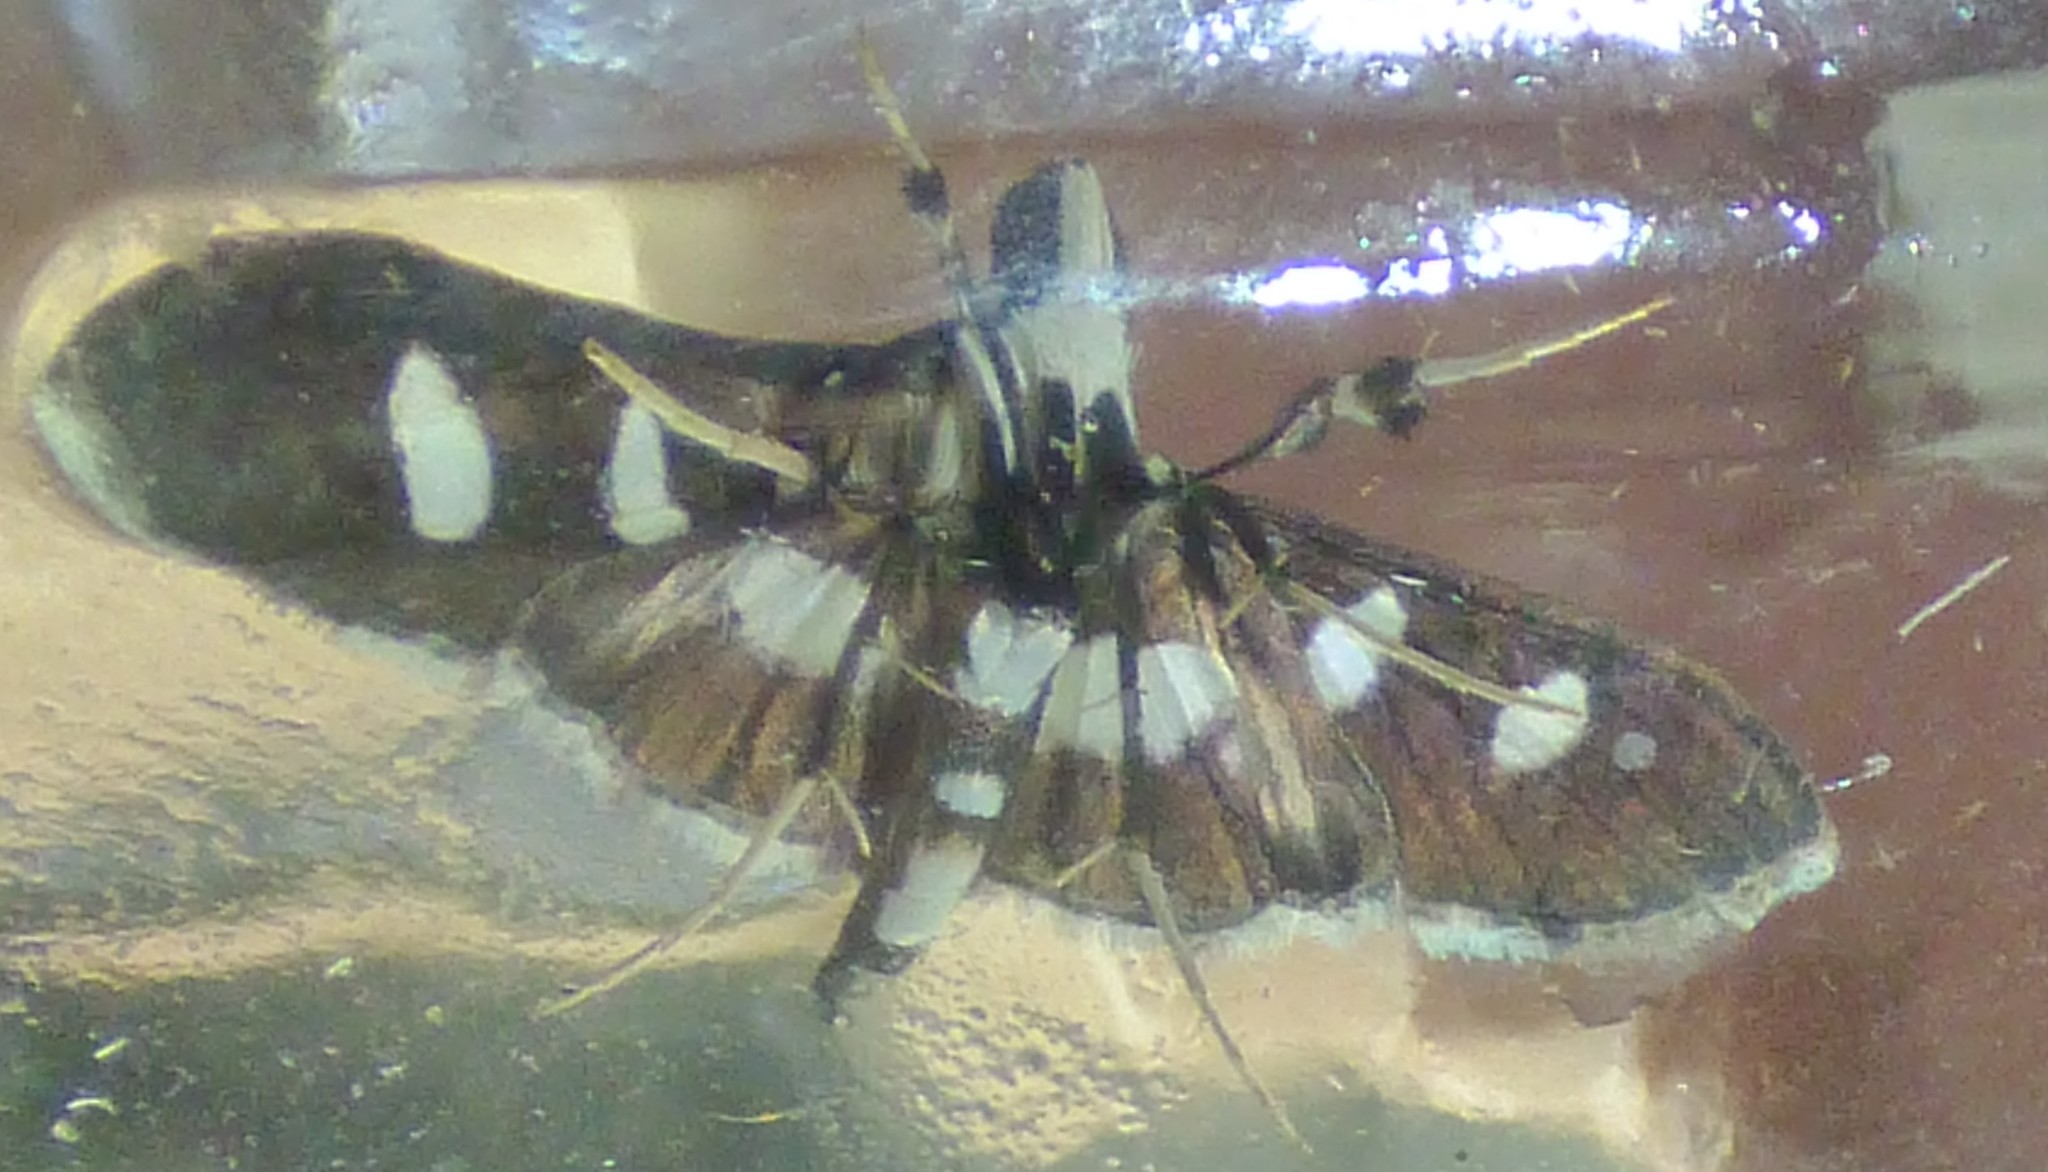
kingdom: Animalia
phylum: Arthropoda
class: Insecta
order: Lepidoptera
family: Crambidae
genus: Desmia
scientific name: Desmia funeralis
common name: Grape leaf folder moth
